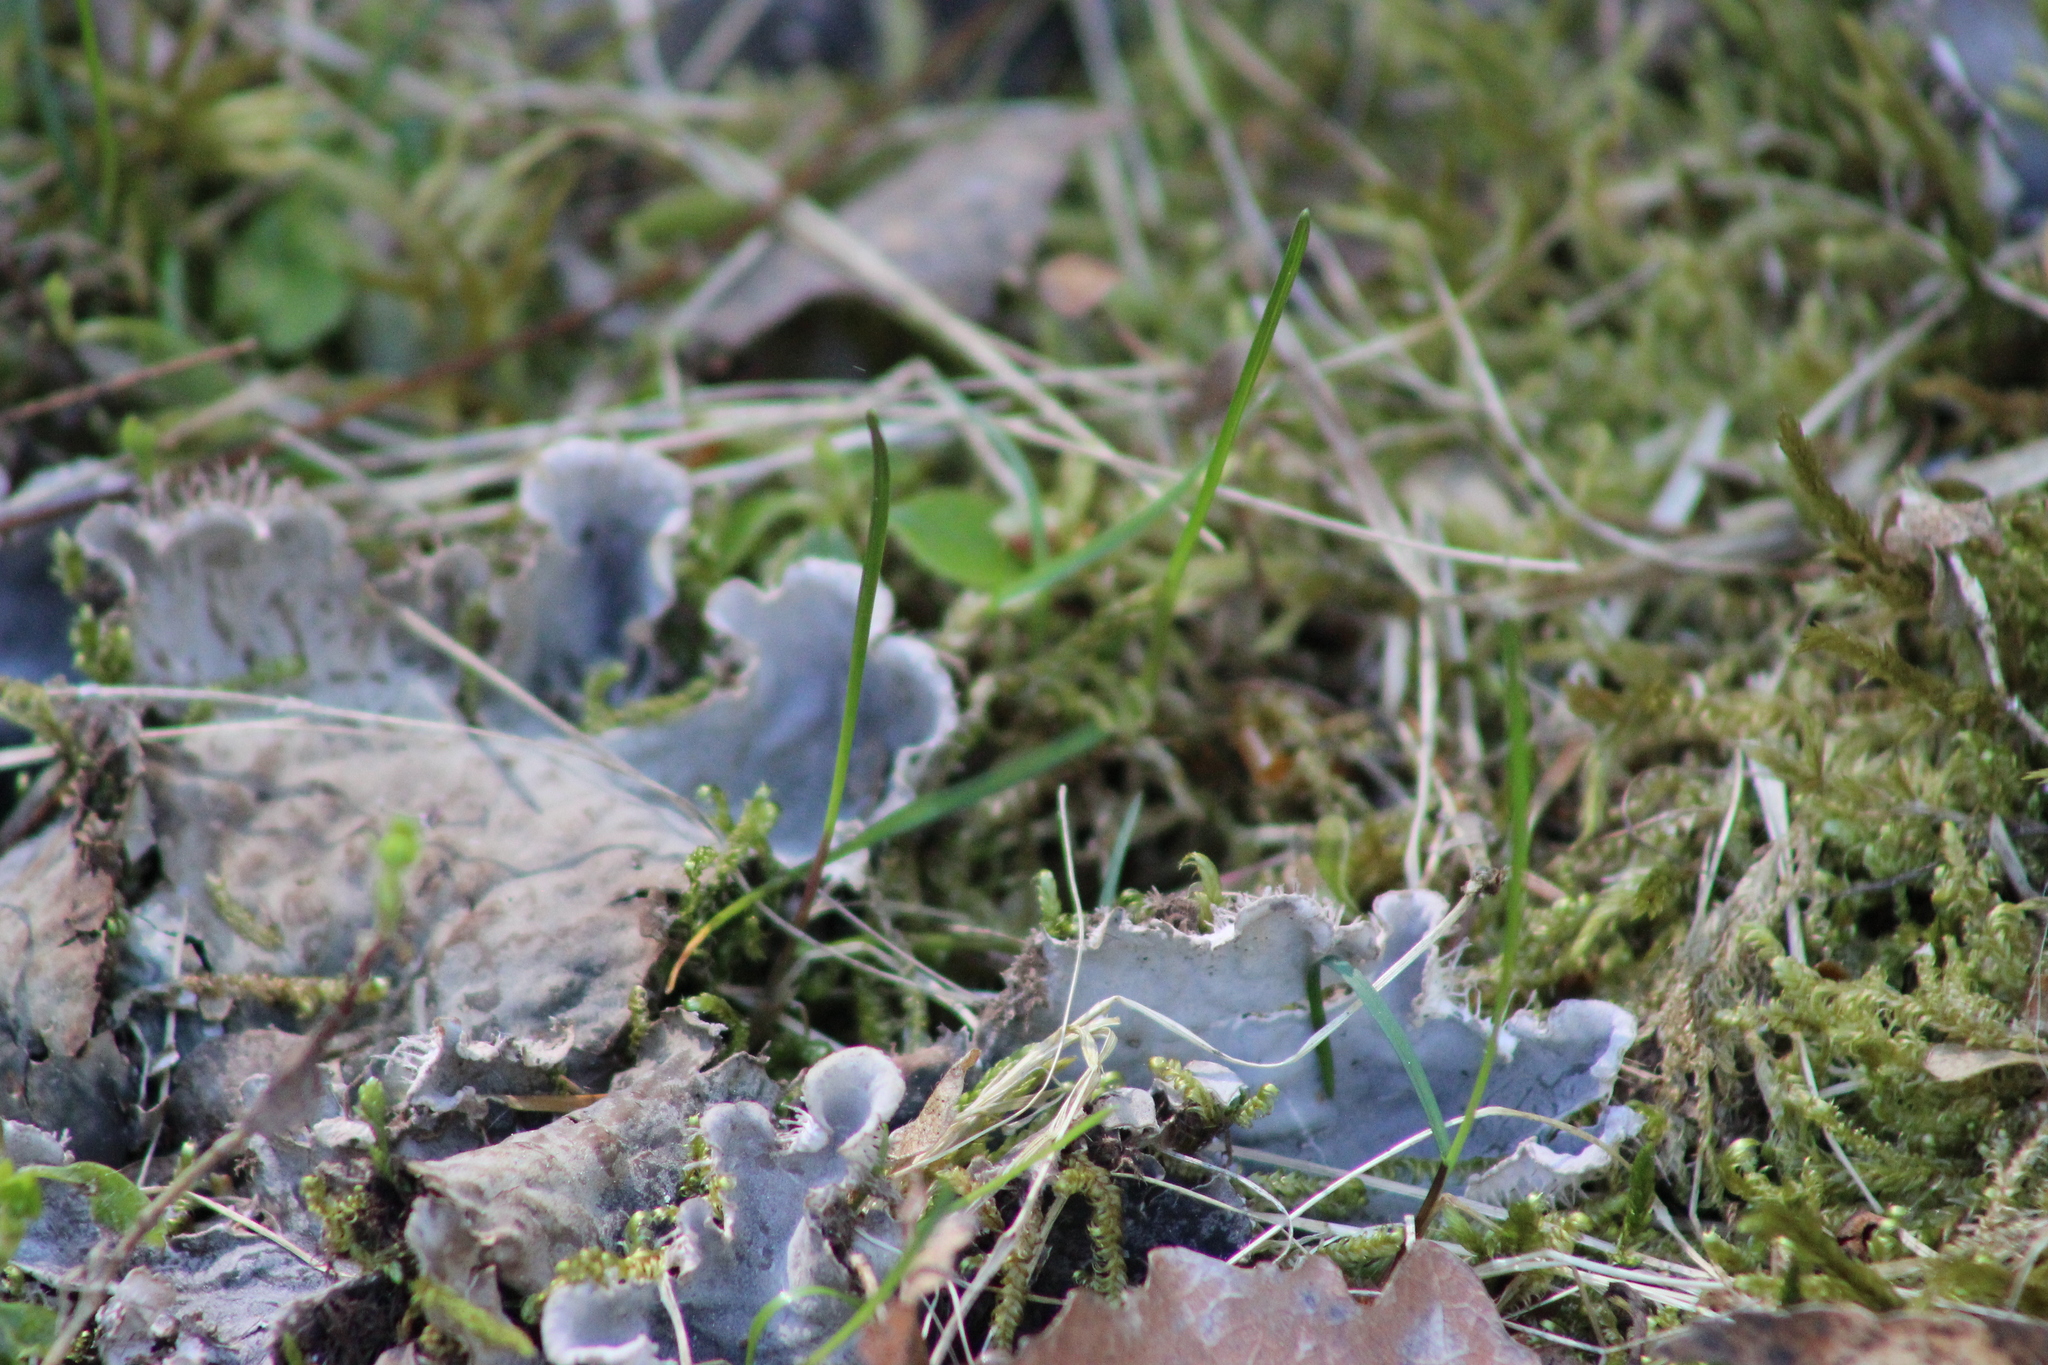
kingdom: Fungi
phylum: Ascomycota
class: Lecanoromycetes
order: Peltigerales
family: Peltigeraceae
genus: Peltigera
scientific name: Peltigera praetextata
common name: Scaly dog-lichen
